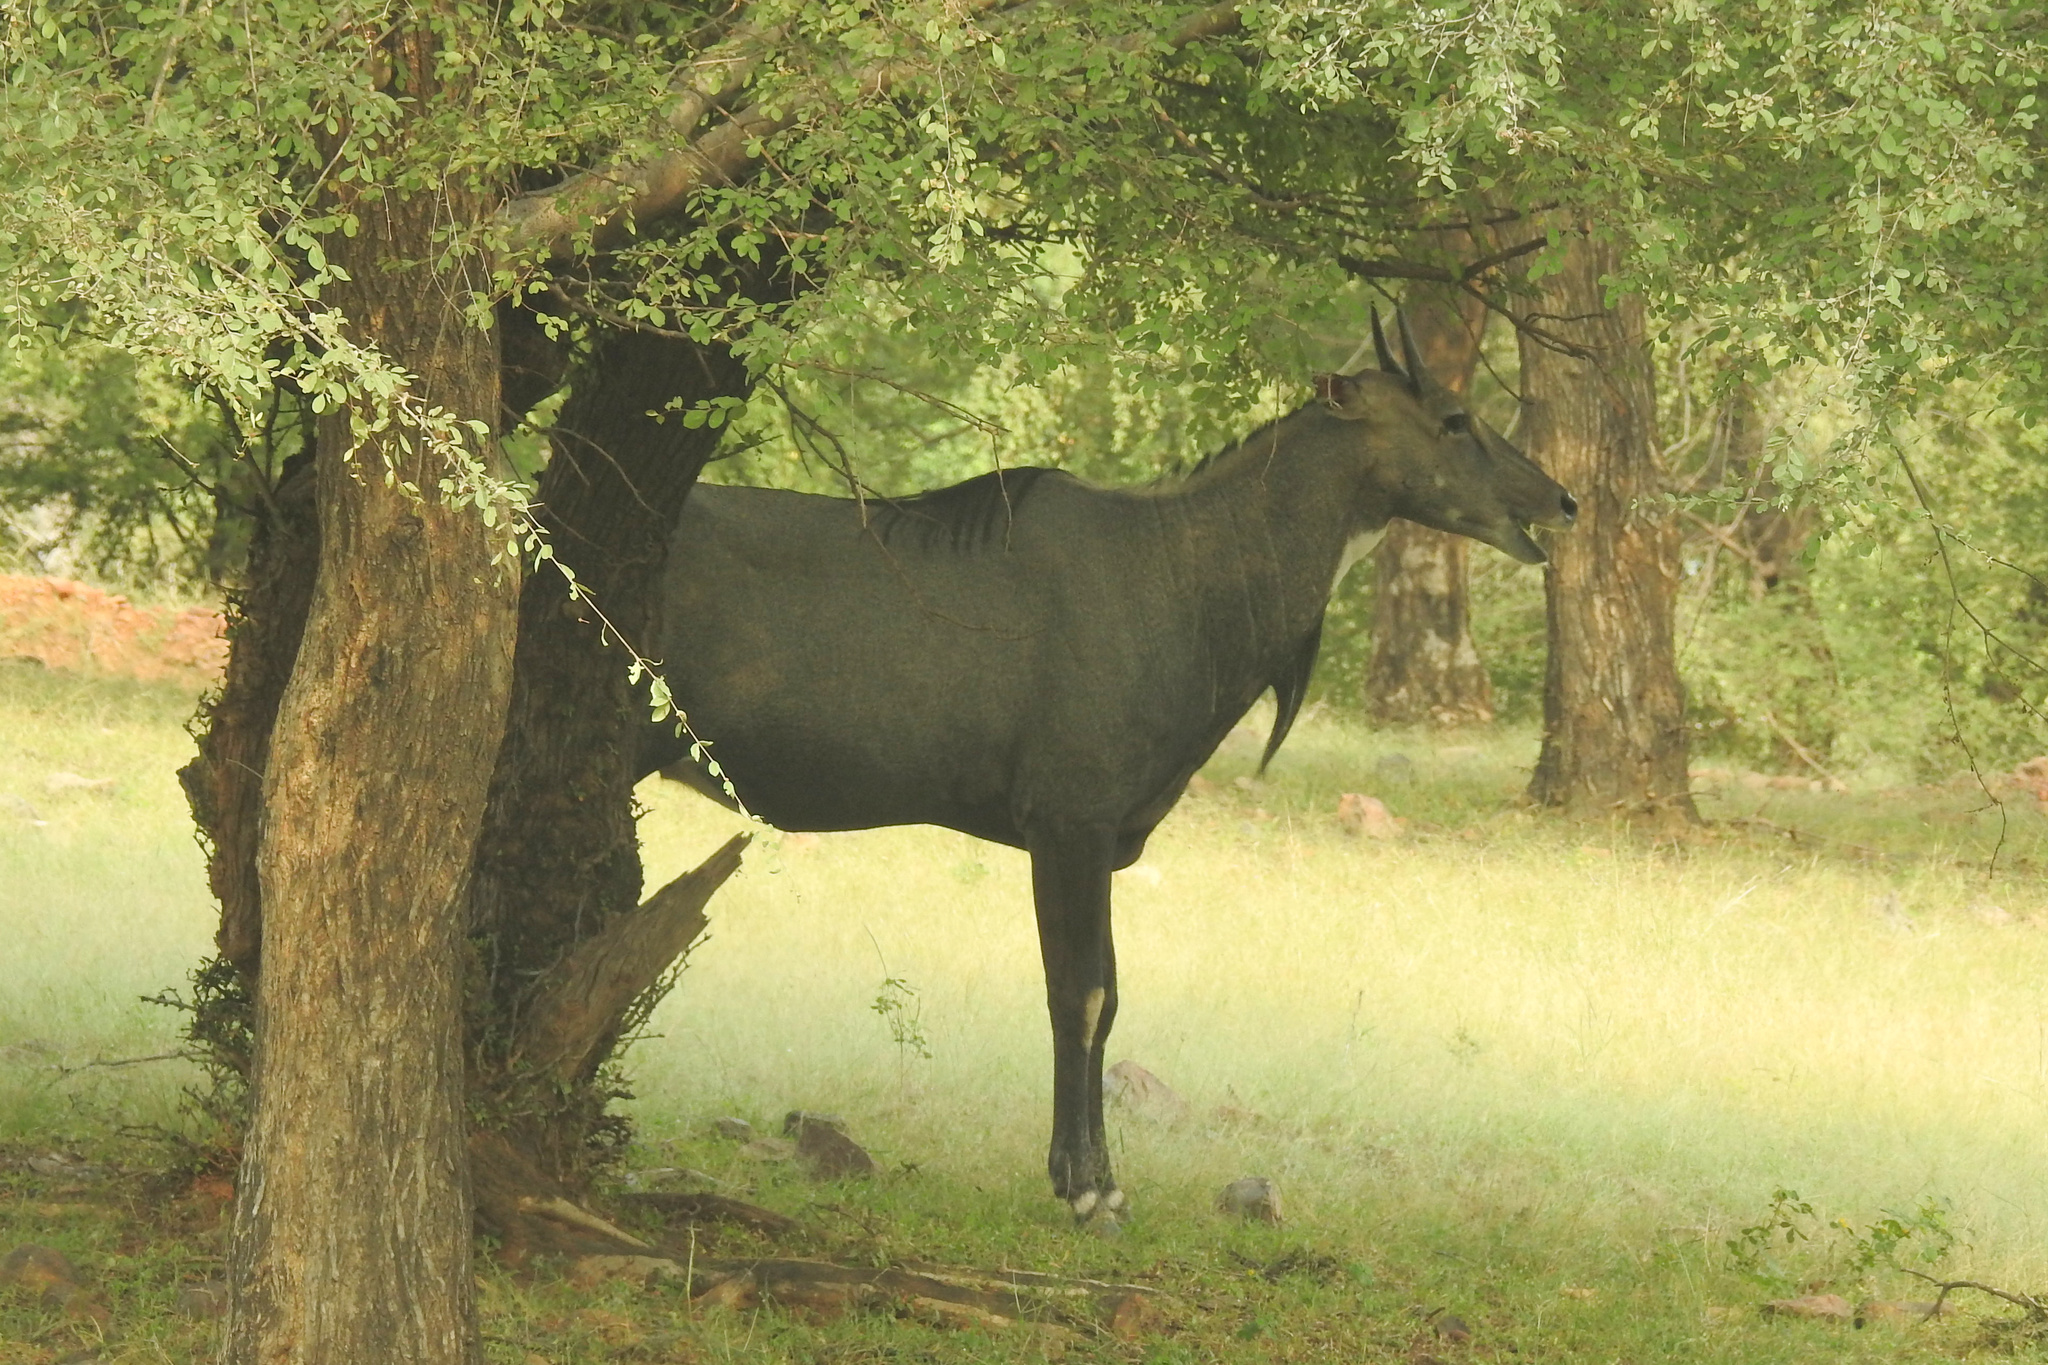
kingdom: Animalia
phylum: Chordata
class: Mammalia
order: Artiodactyla
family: Bovidae
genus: Boselaphus
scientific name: Boselaphus tragocamelus
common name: Nilgai
